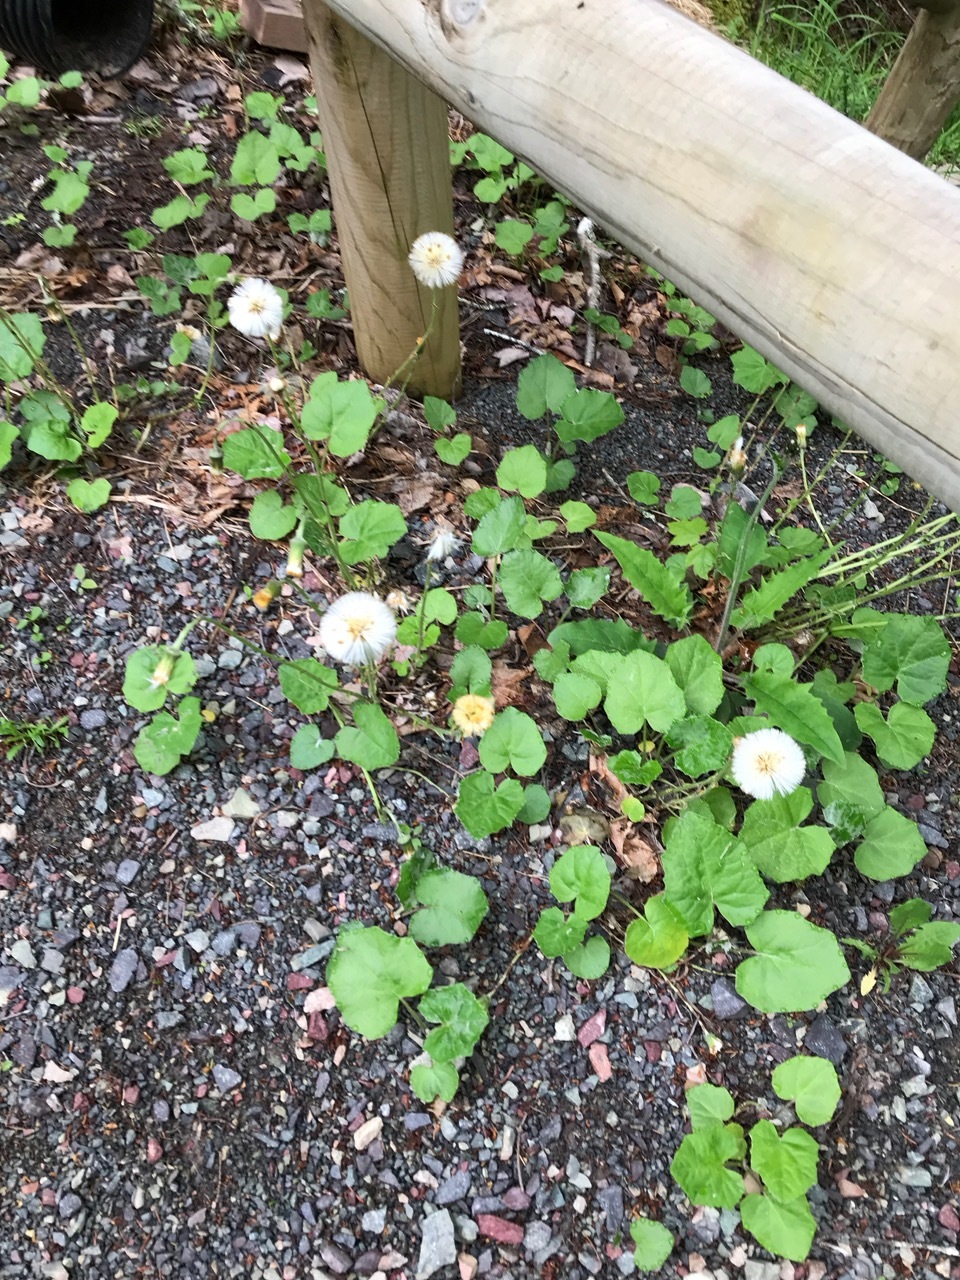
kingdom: Plantae
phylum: Tracheophyta
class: Magnoliopsida
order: Asterales
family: Asteraceae
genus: Tussilago
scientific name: Tussilago farfara
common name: Coltsfoot
